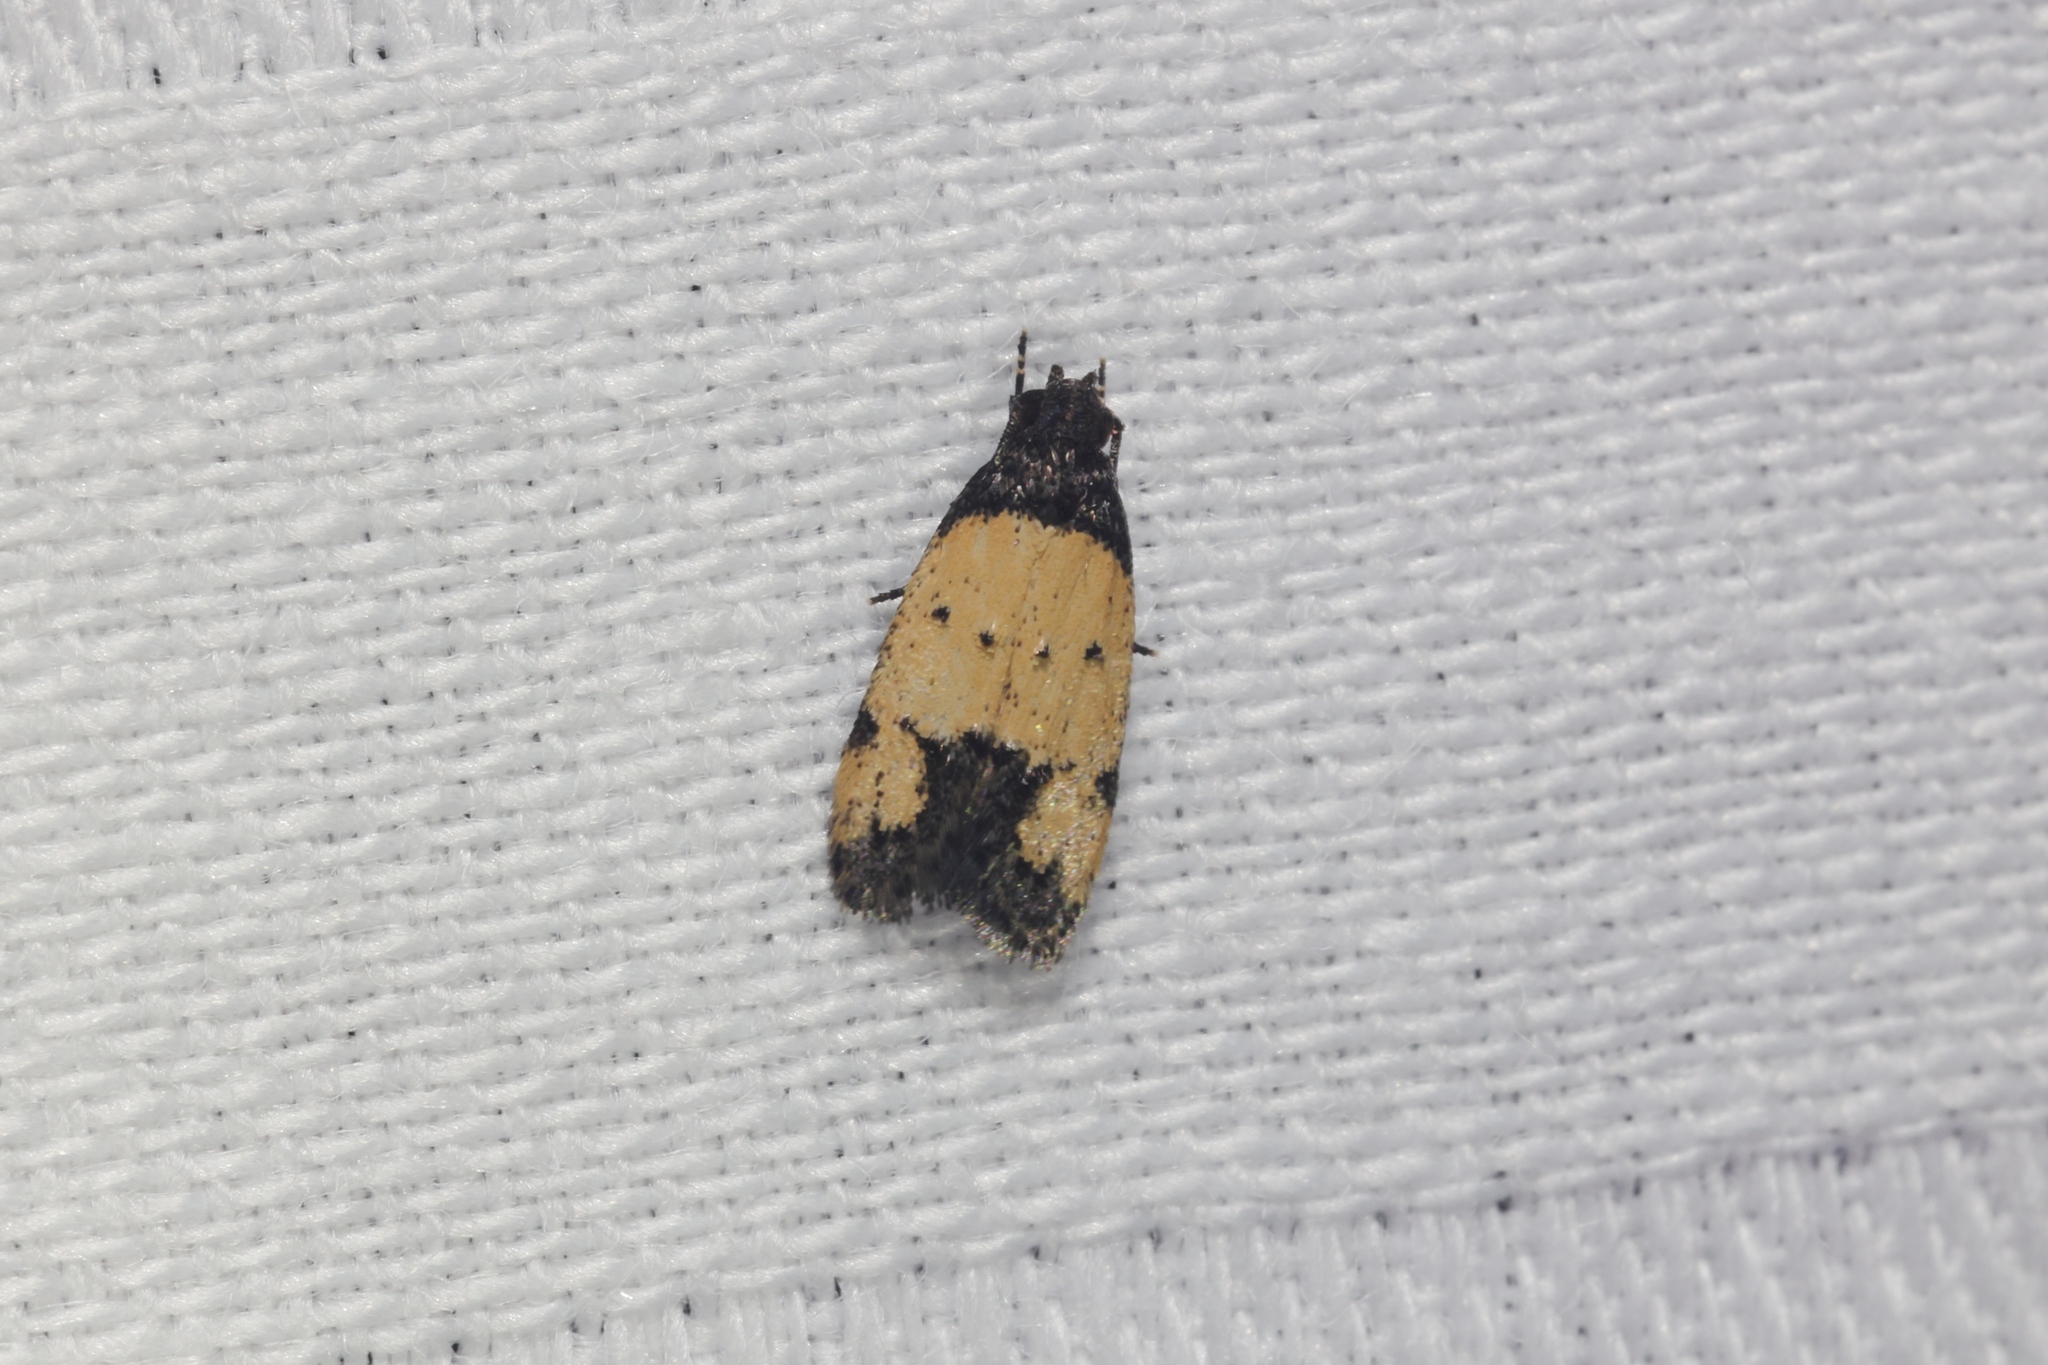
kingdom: Animalia
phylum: Arthropoda
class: Insecta
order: Lepidoptera
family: Oecophoridae
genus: Tyrolimnas
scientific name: Tyrolimnas anthraconesa
